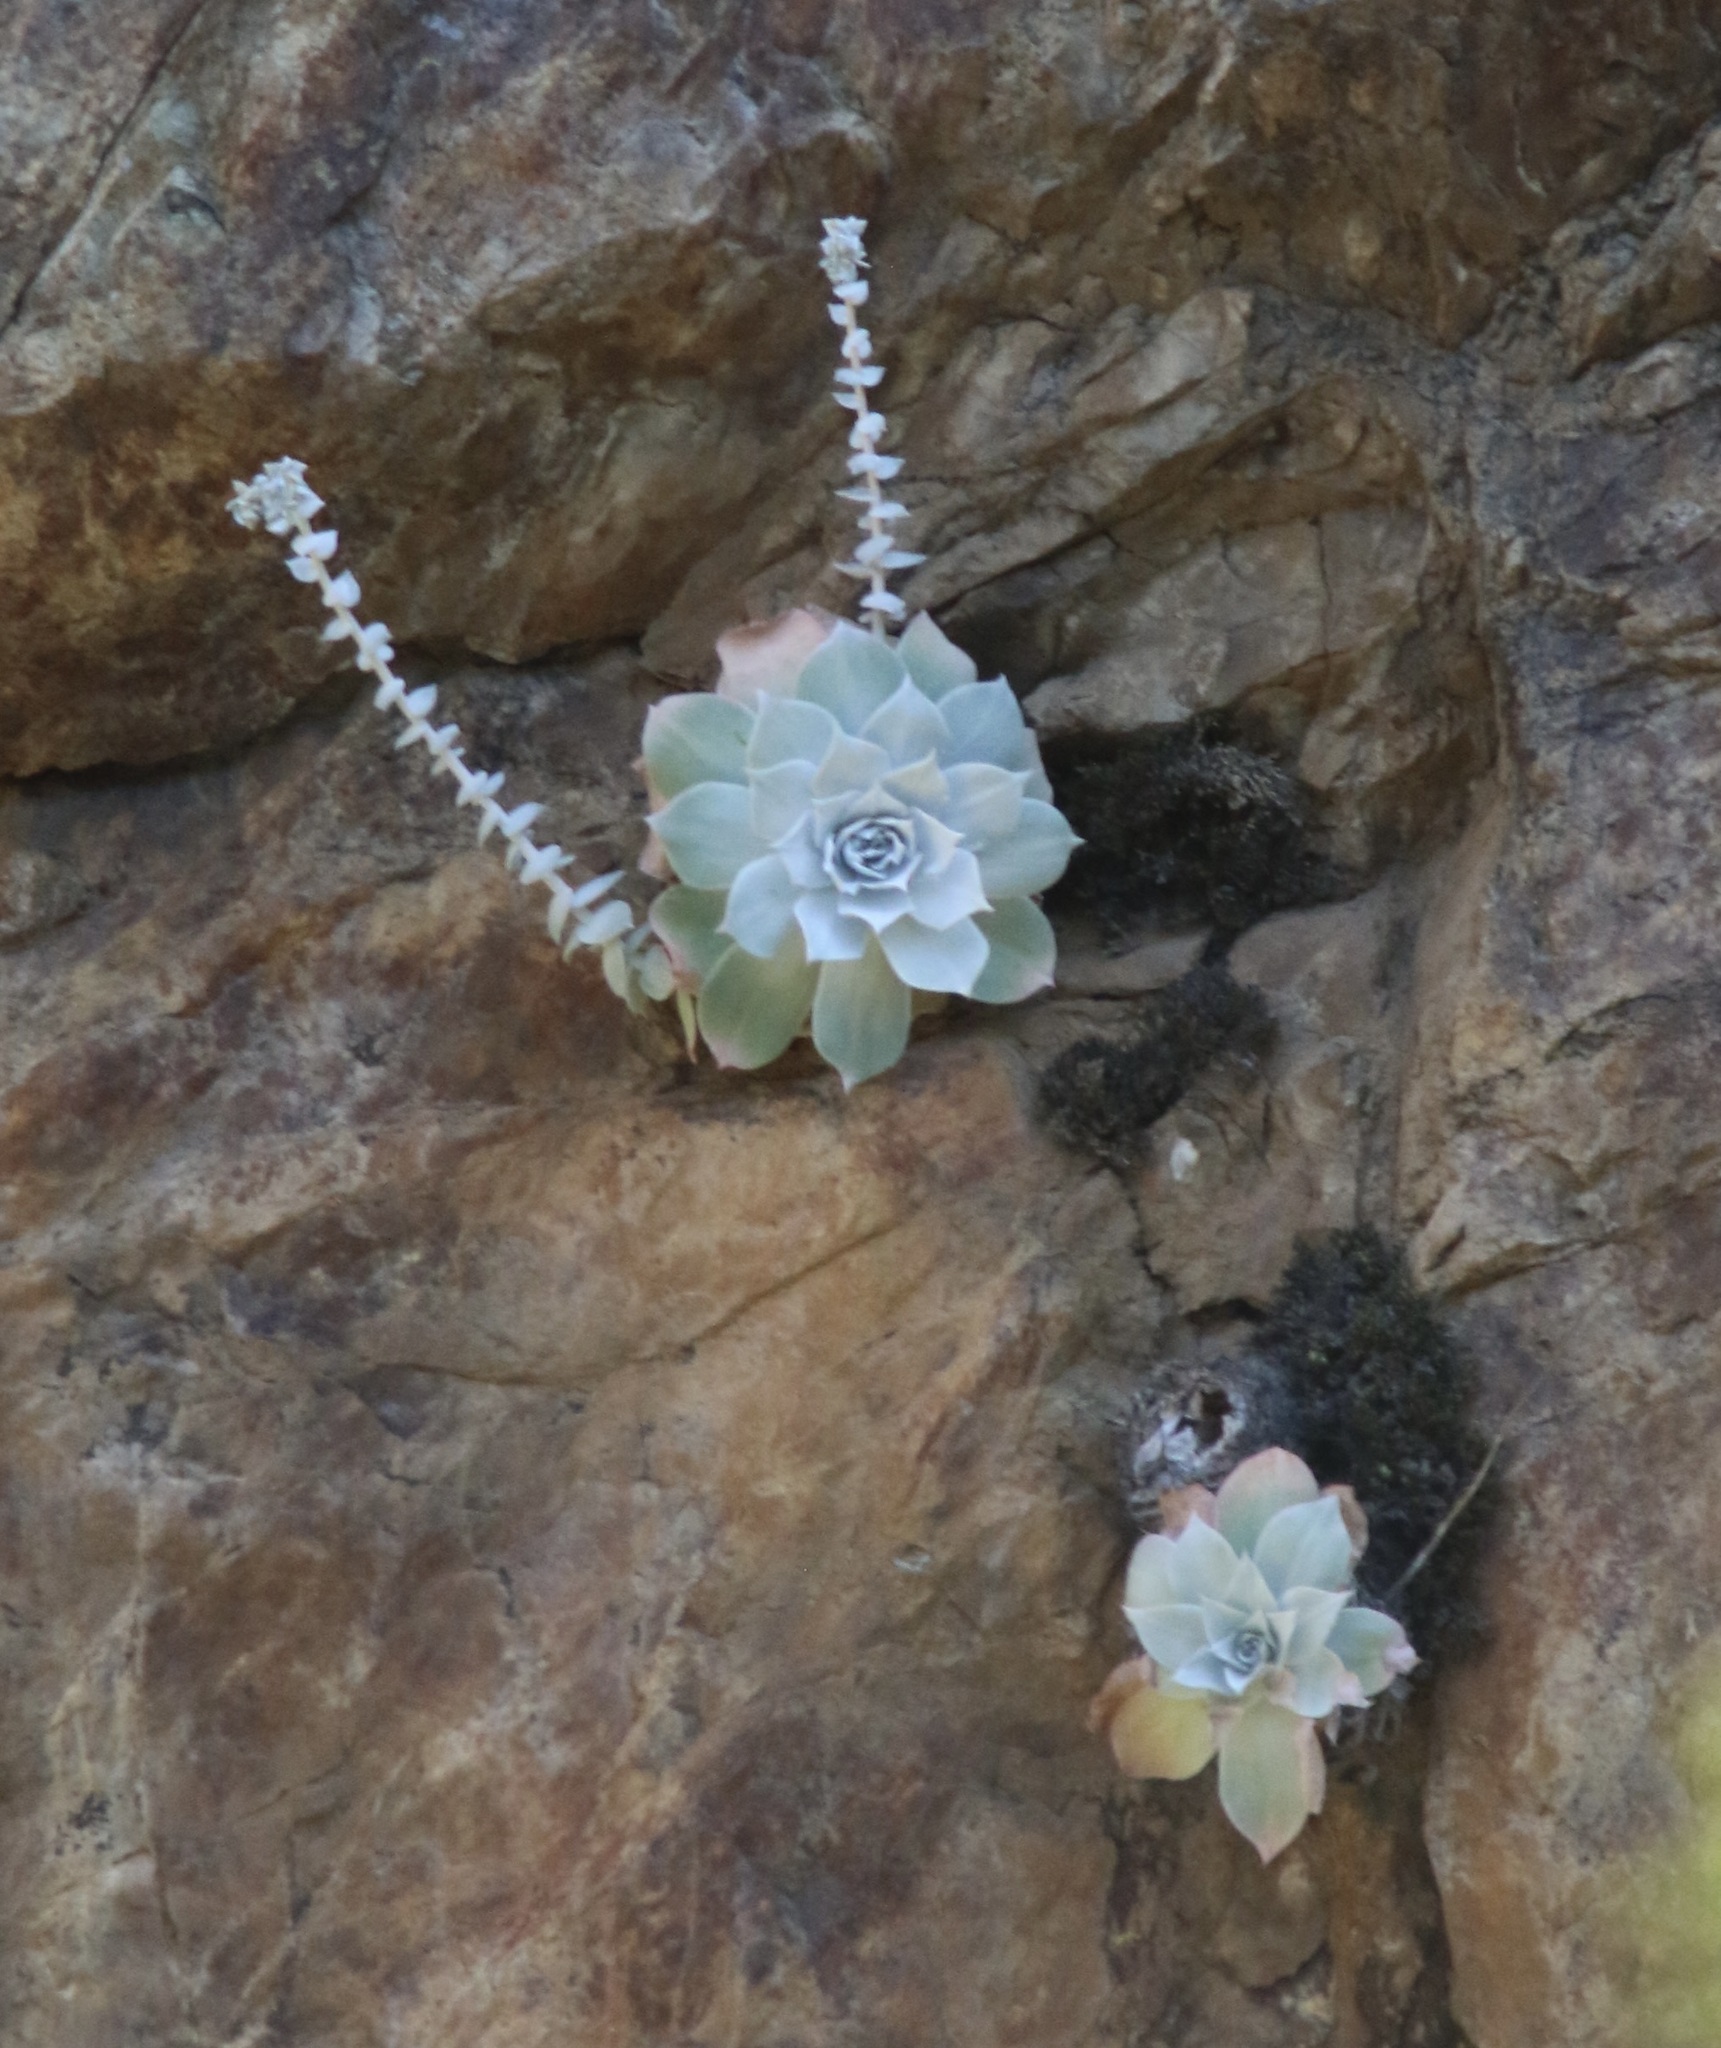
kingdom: Plantae
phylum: Tracheophyta
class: Magnoliopsida
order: Saxifragales
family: Crassulaceae
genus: Dudleya
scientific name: Dudleya pulverulenta
